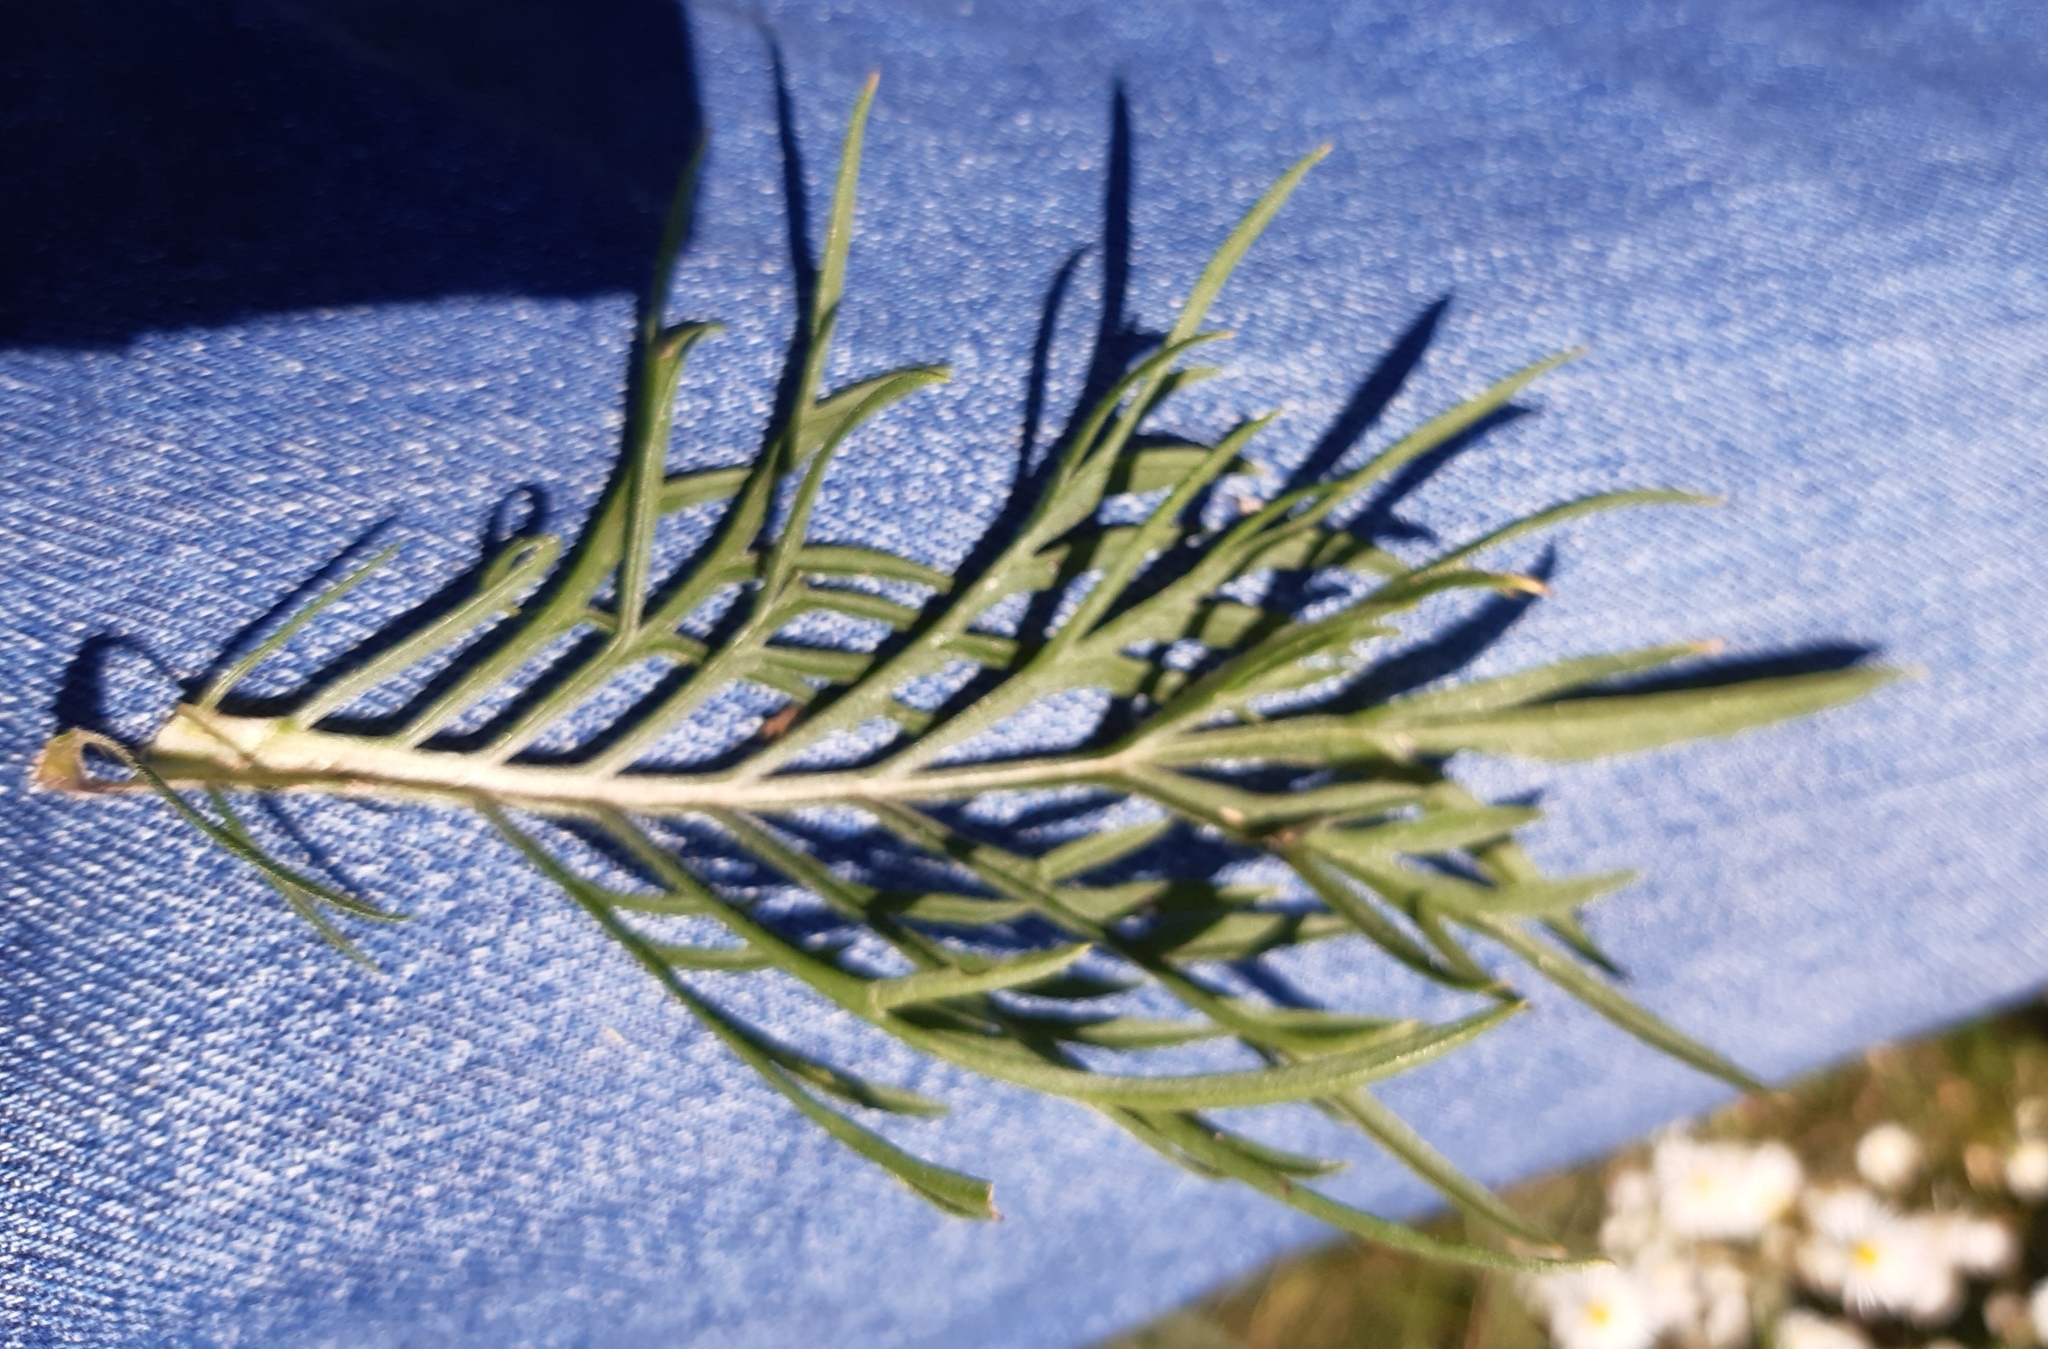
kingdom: Plantae
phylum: Tracheophyta
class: Magnoliopsida
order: Dipsacales
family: Caprifoliaceae
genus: Scabiosa
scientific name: Scabiosa columbaria
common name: Small scabious
